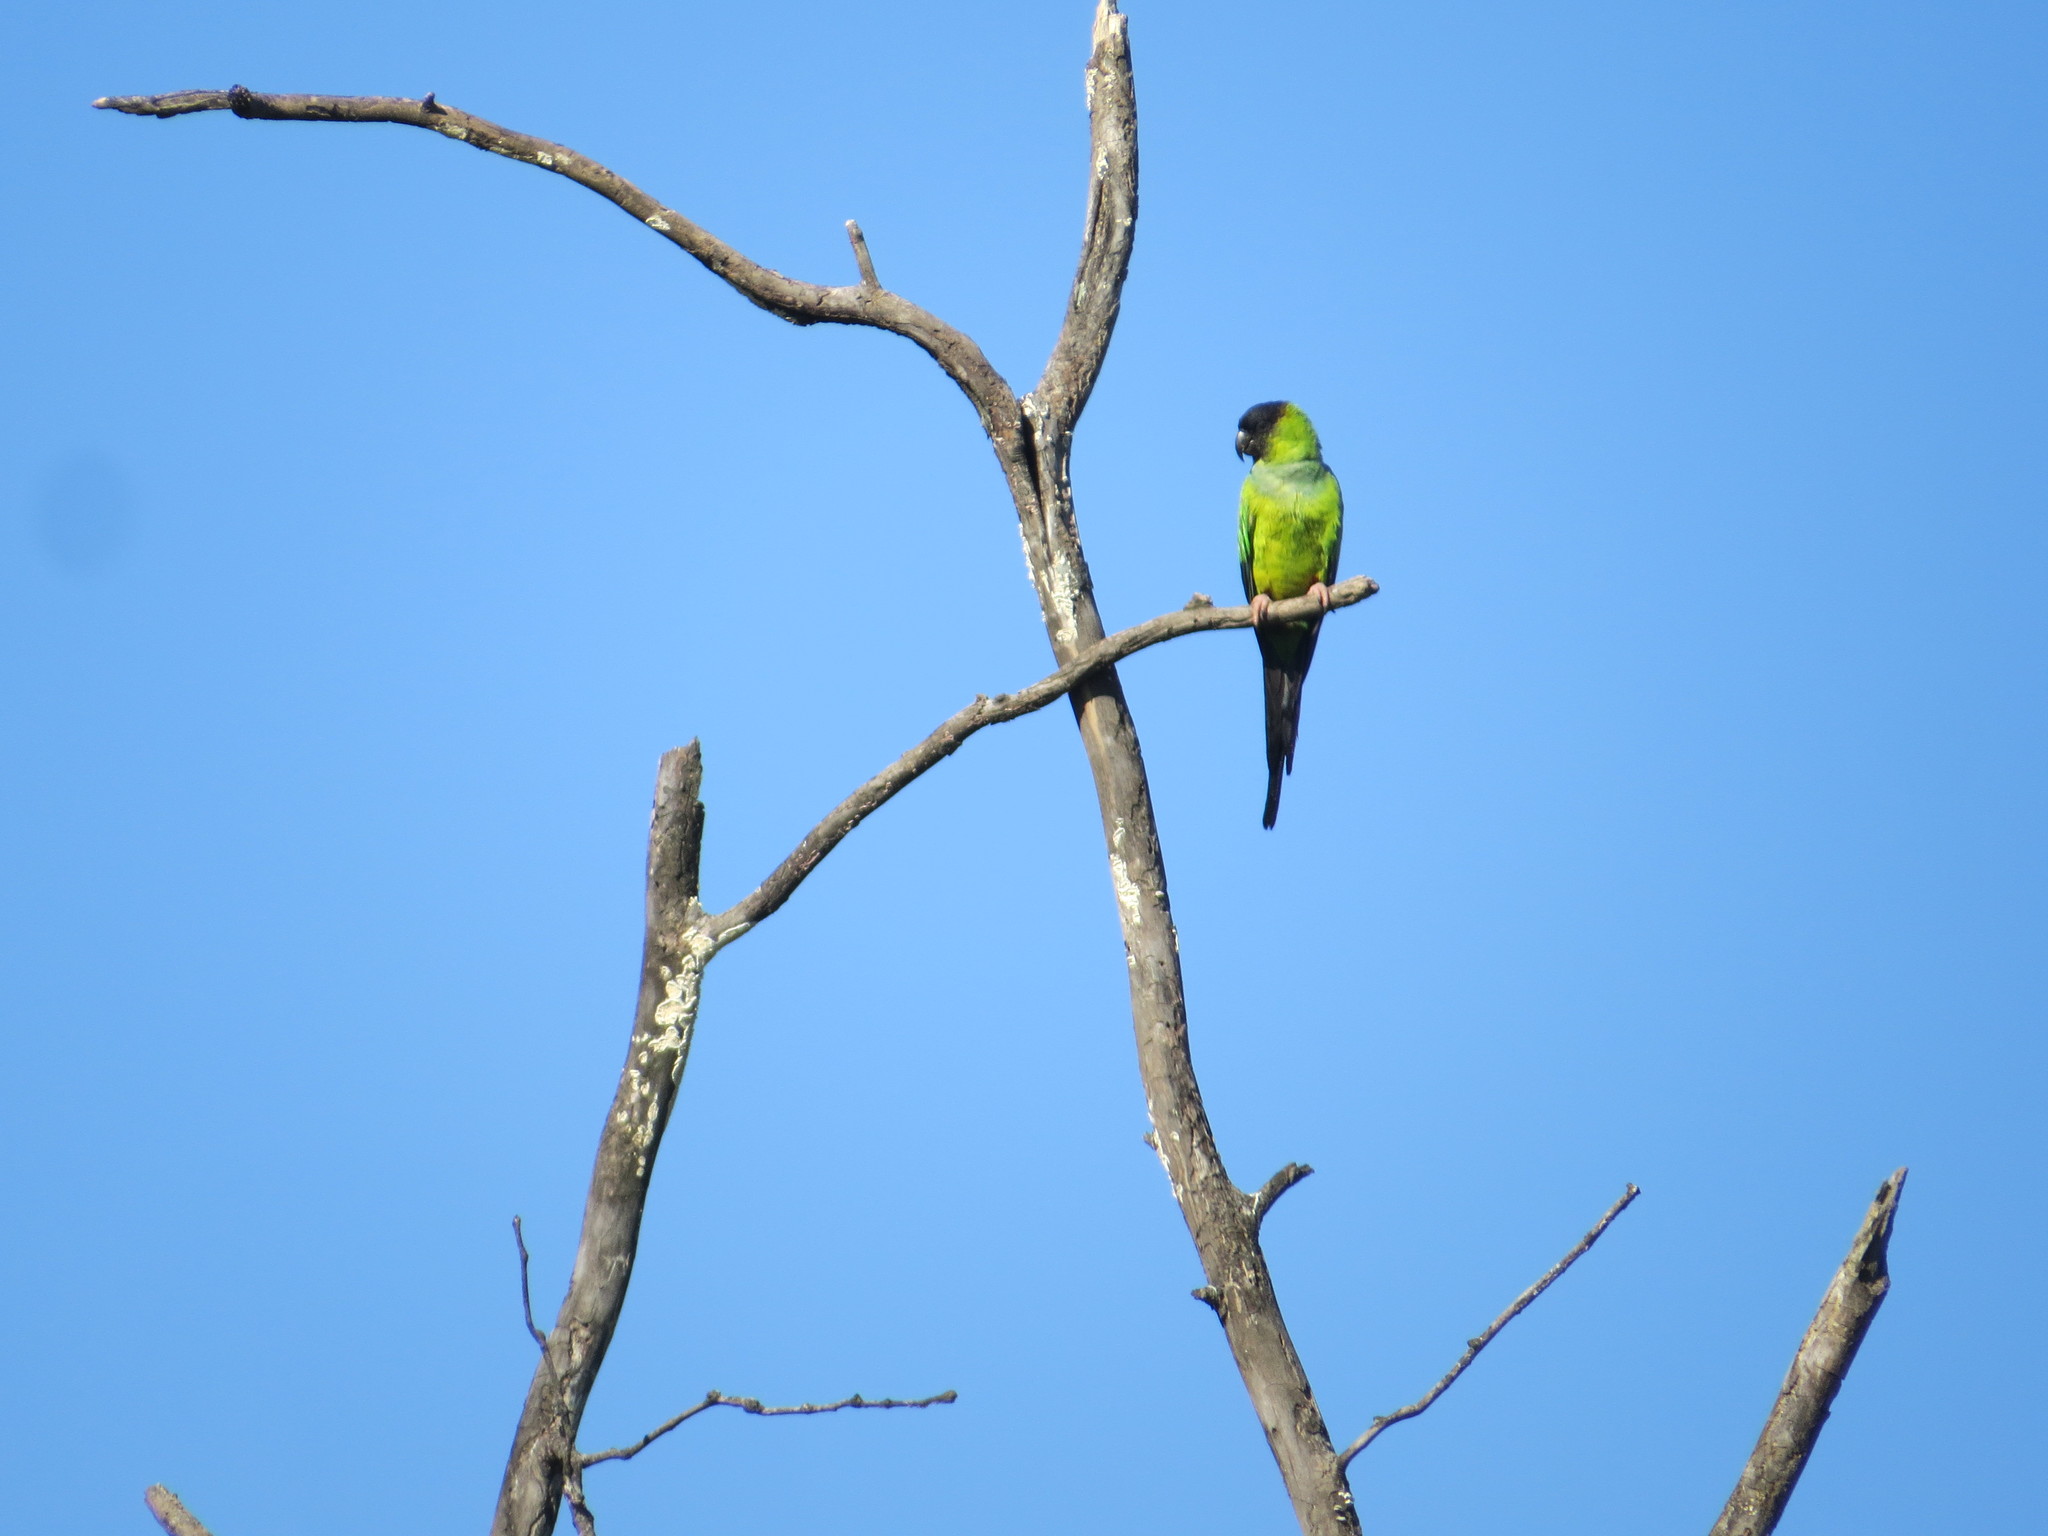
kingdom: Animalia
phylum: Chordata
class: Aves
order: Psittaciformes
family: Psittacidae
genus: Nandayus
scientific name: Nandayus nenday
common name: Nanday parakeet
